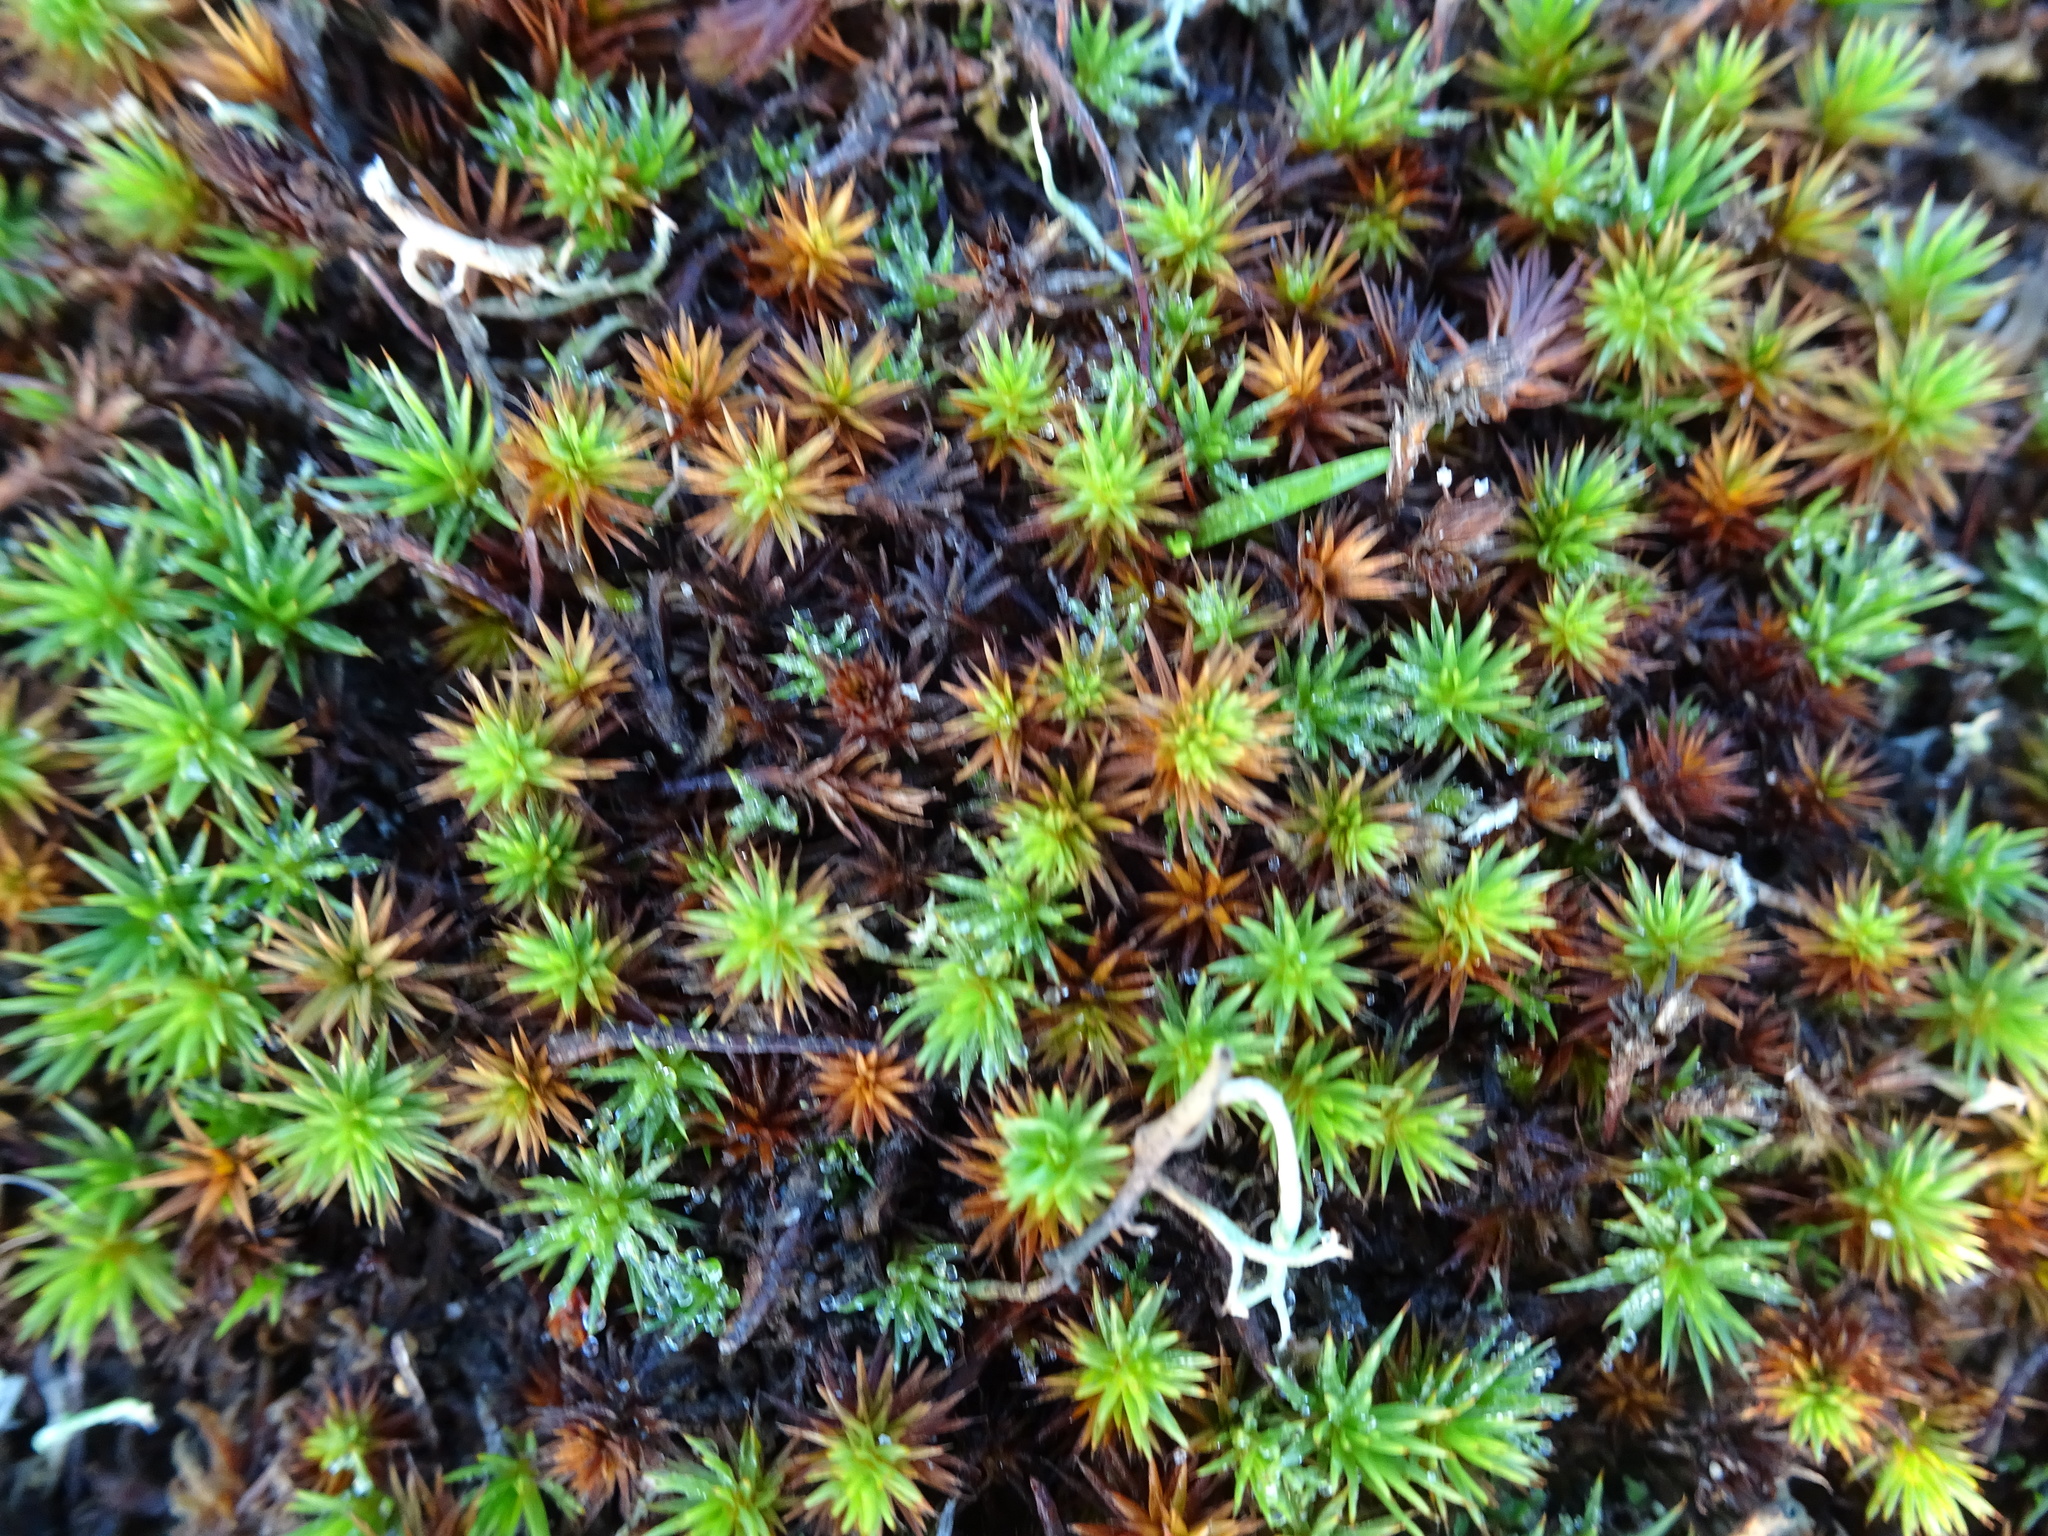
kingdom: Plantae
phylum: Bryophyta
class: Polytrichopsida
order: Polytrichales
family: Polytrichaceae
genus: Polytrichum
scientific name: Polytrichum juniperinum
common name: Juniper haircap moss
